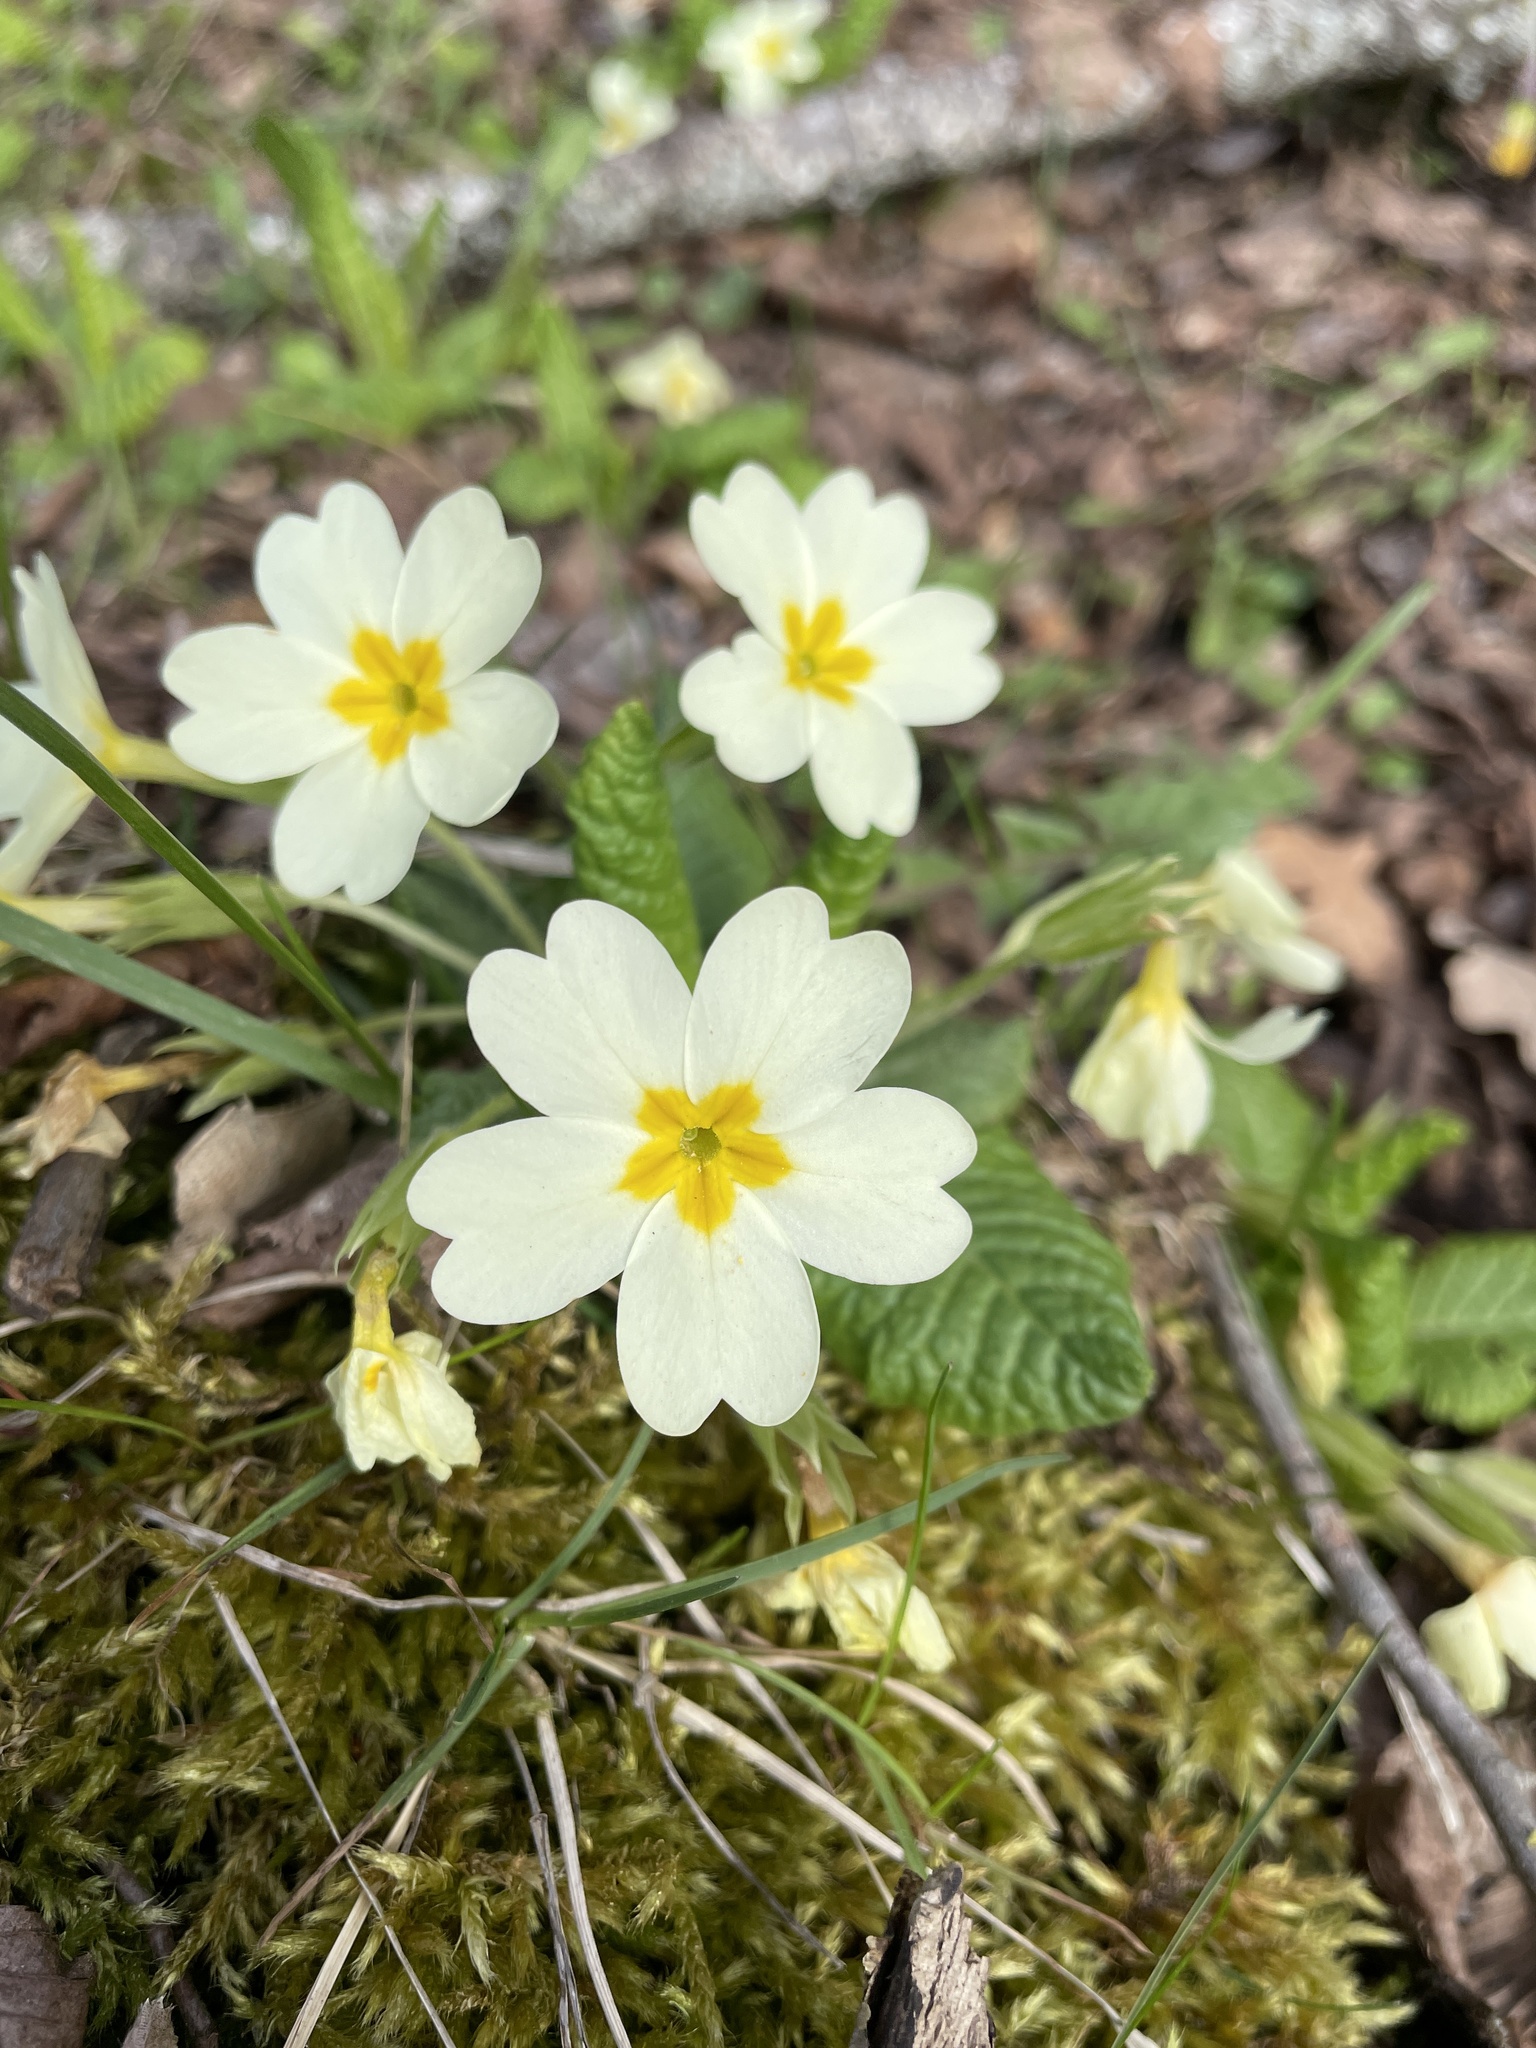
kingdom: Plantae
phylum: Tracheophyta
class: Magnoliopsida
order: Ericales
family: Primulaceae
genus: Primula
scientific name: Primula vulgaris
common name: Primrose
